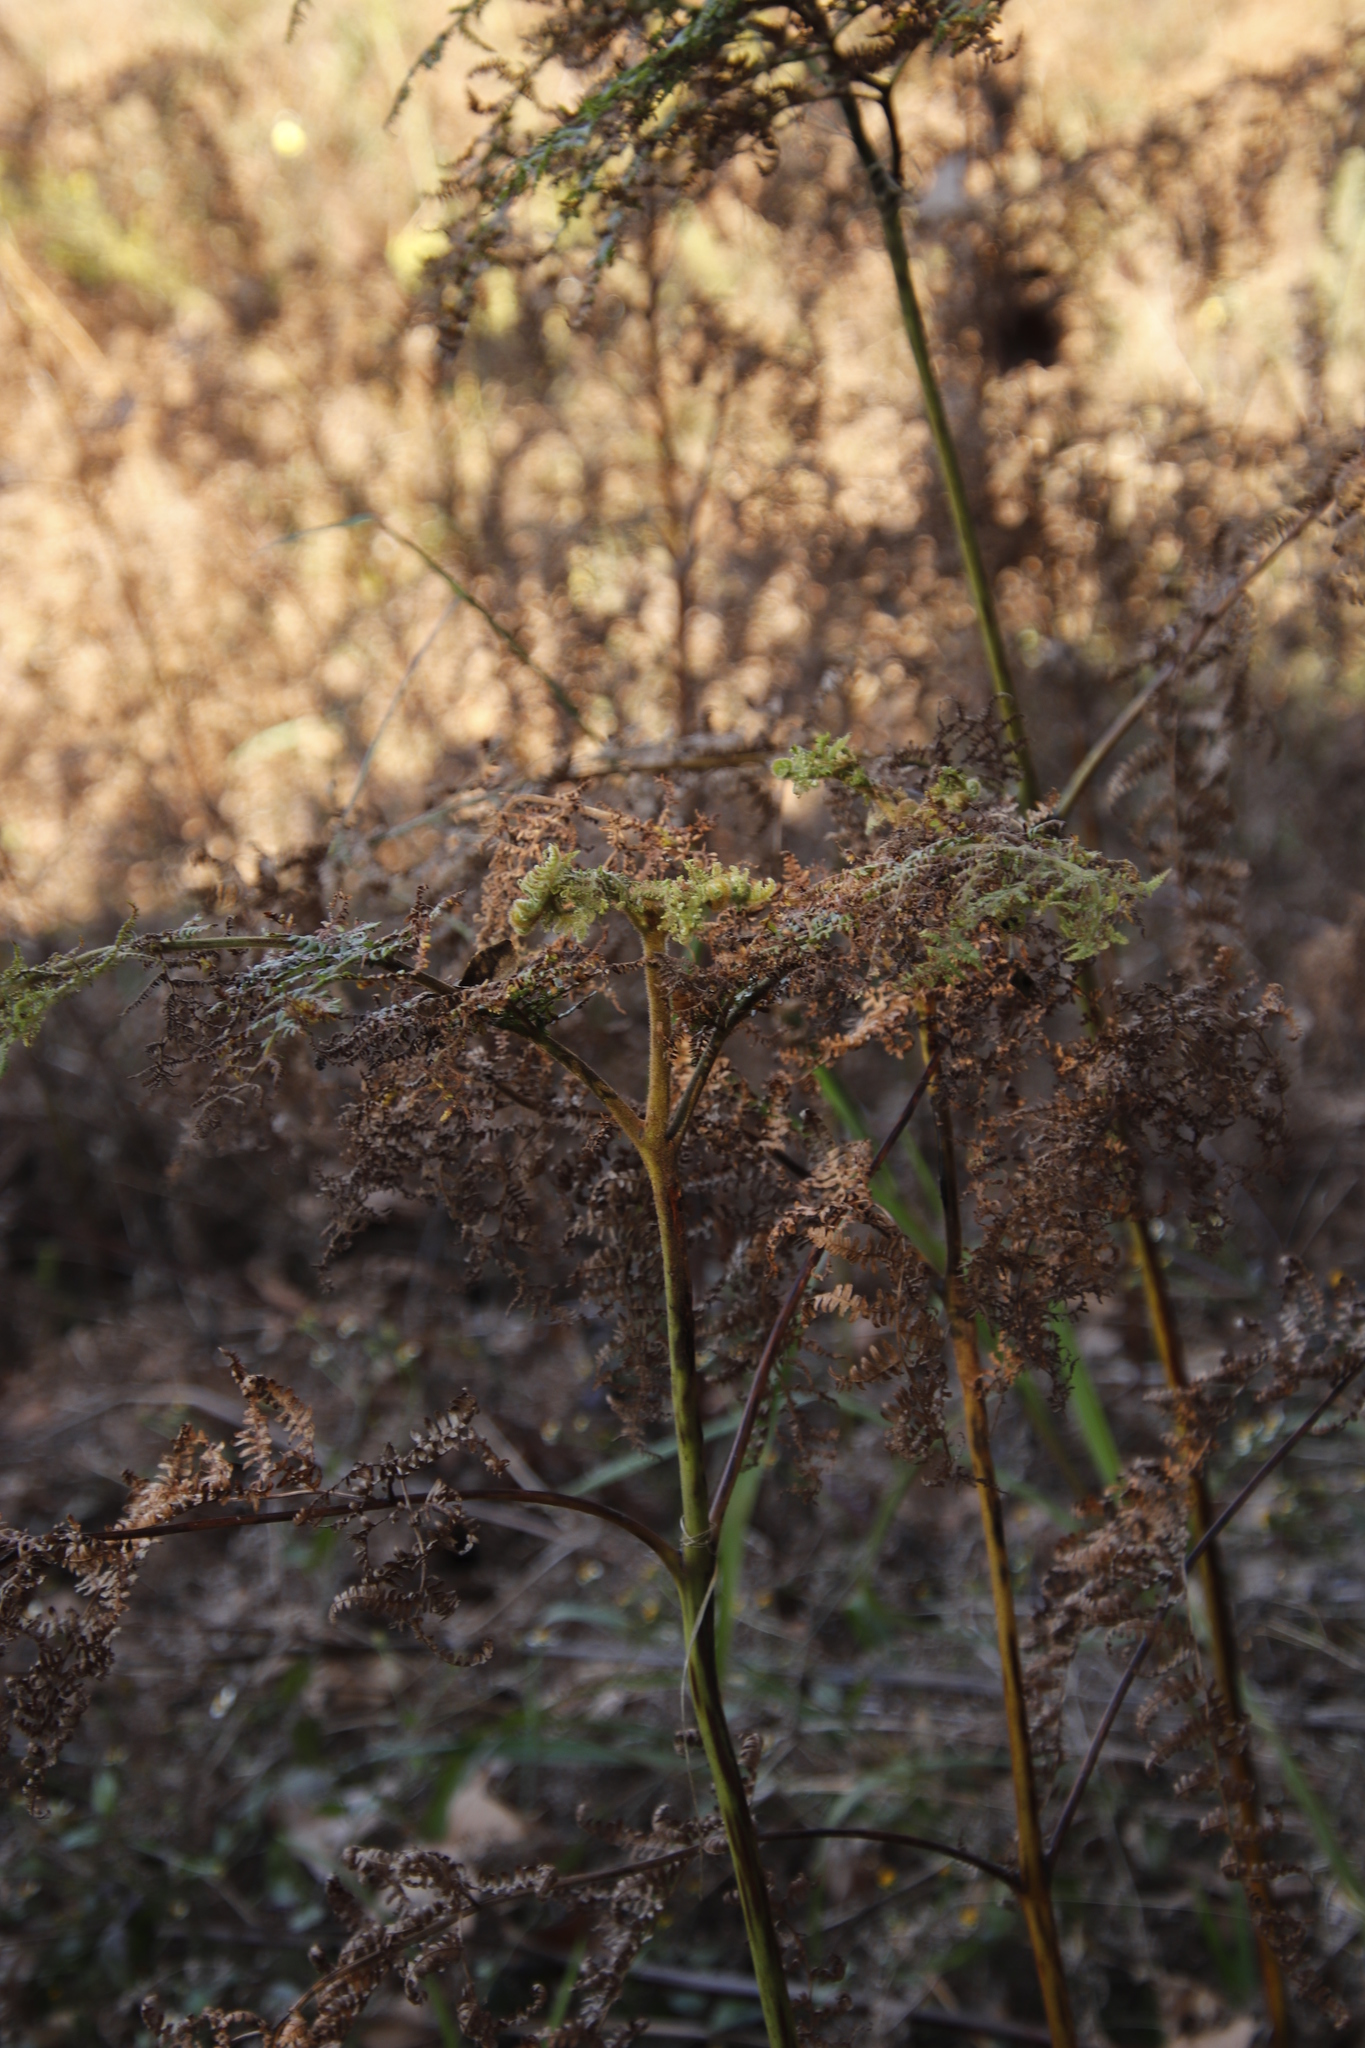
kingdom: Plantae
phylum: Tracheophyta
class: Polypodiopsida
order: Polypodiales
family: Dennstaedtiaceae
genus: Pteridium
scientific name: Pteridium aquilinum
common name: Bracken
